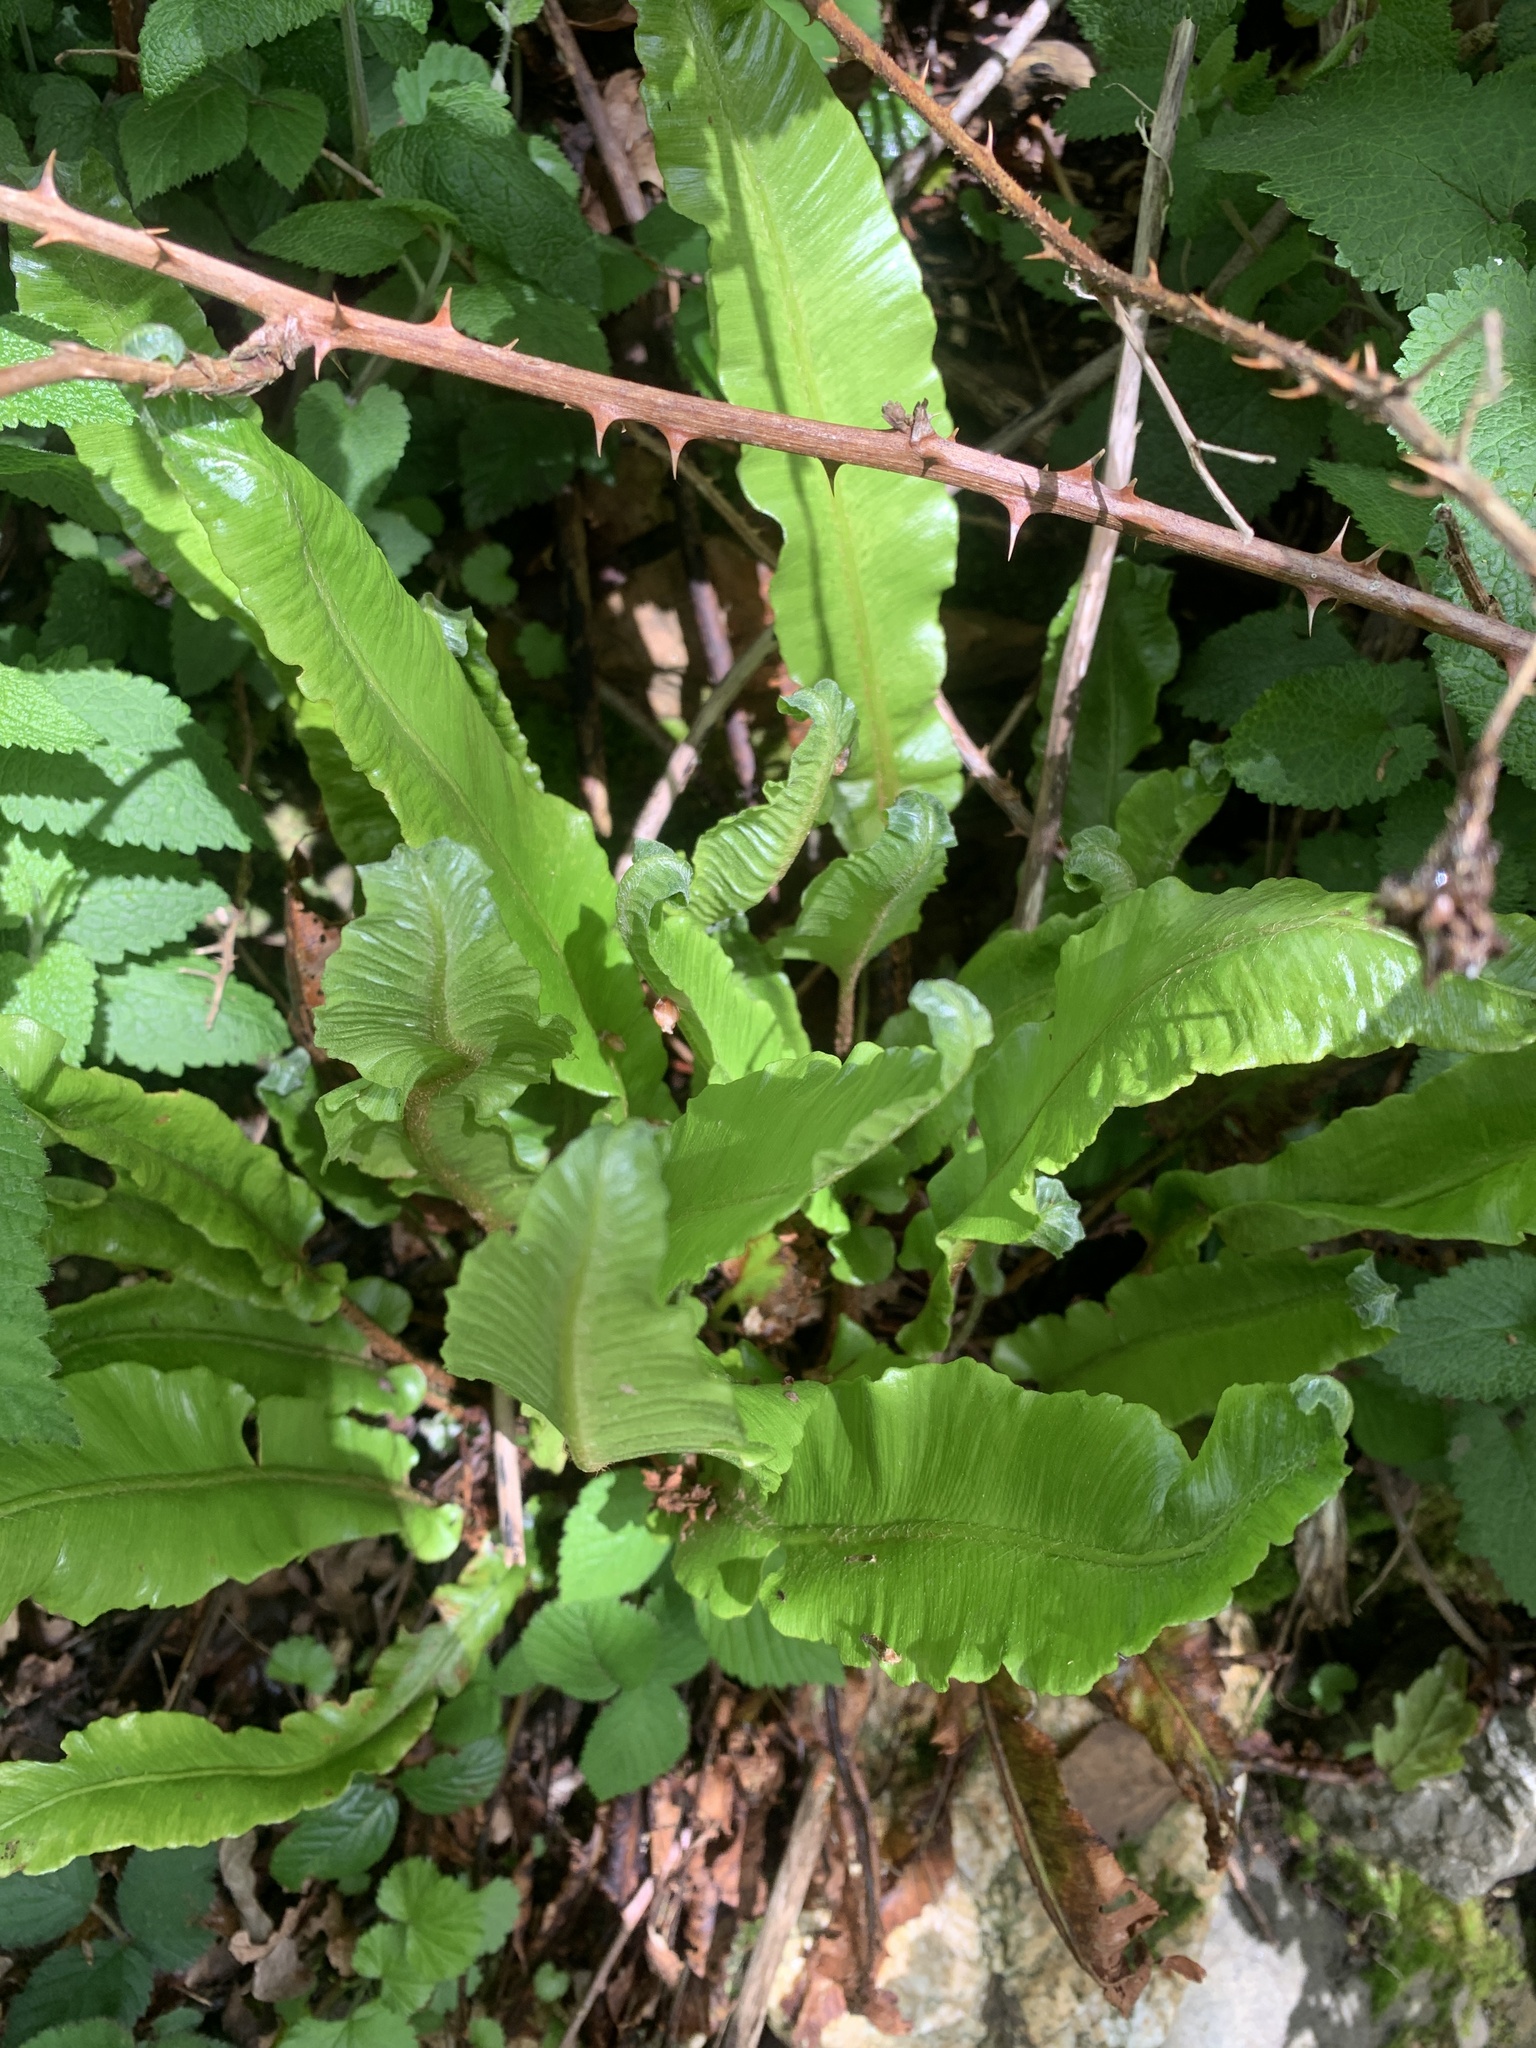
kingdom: Plantae
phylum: Tracheophyta
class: Polypodiopsida
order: Polypodiales
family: Aspleniaceae
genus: Asplenium
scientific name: Asplenium scolopendrium
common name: Hart's-tongue fern
